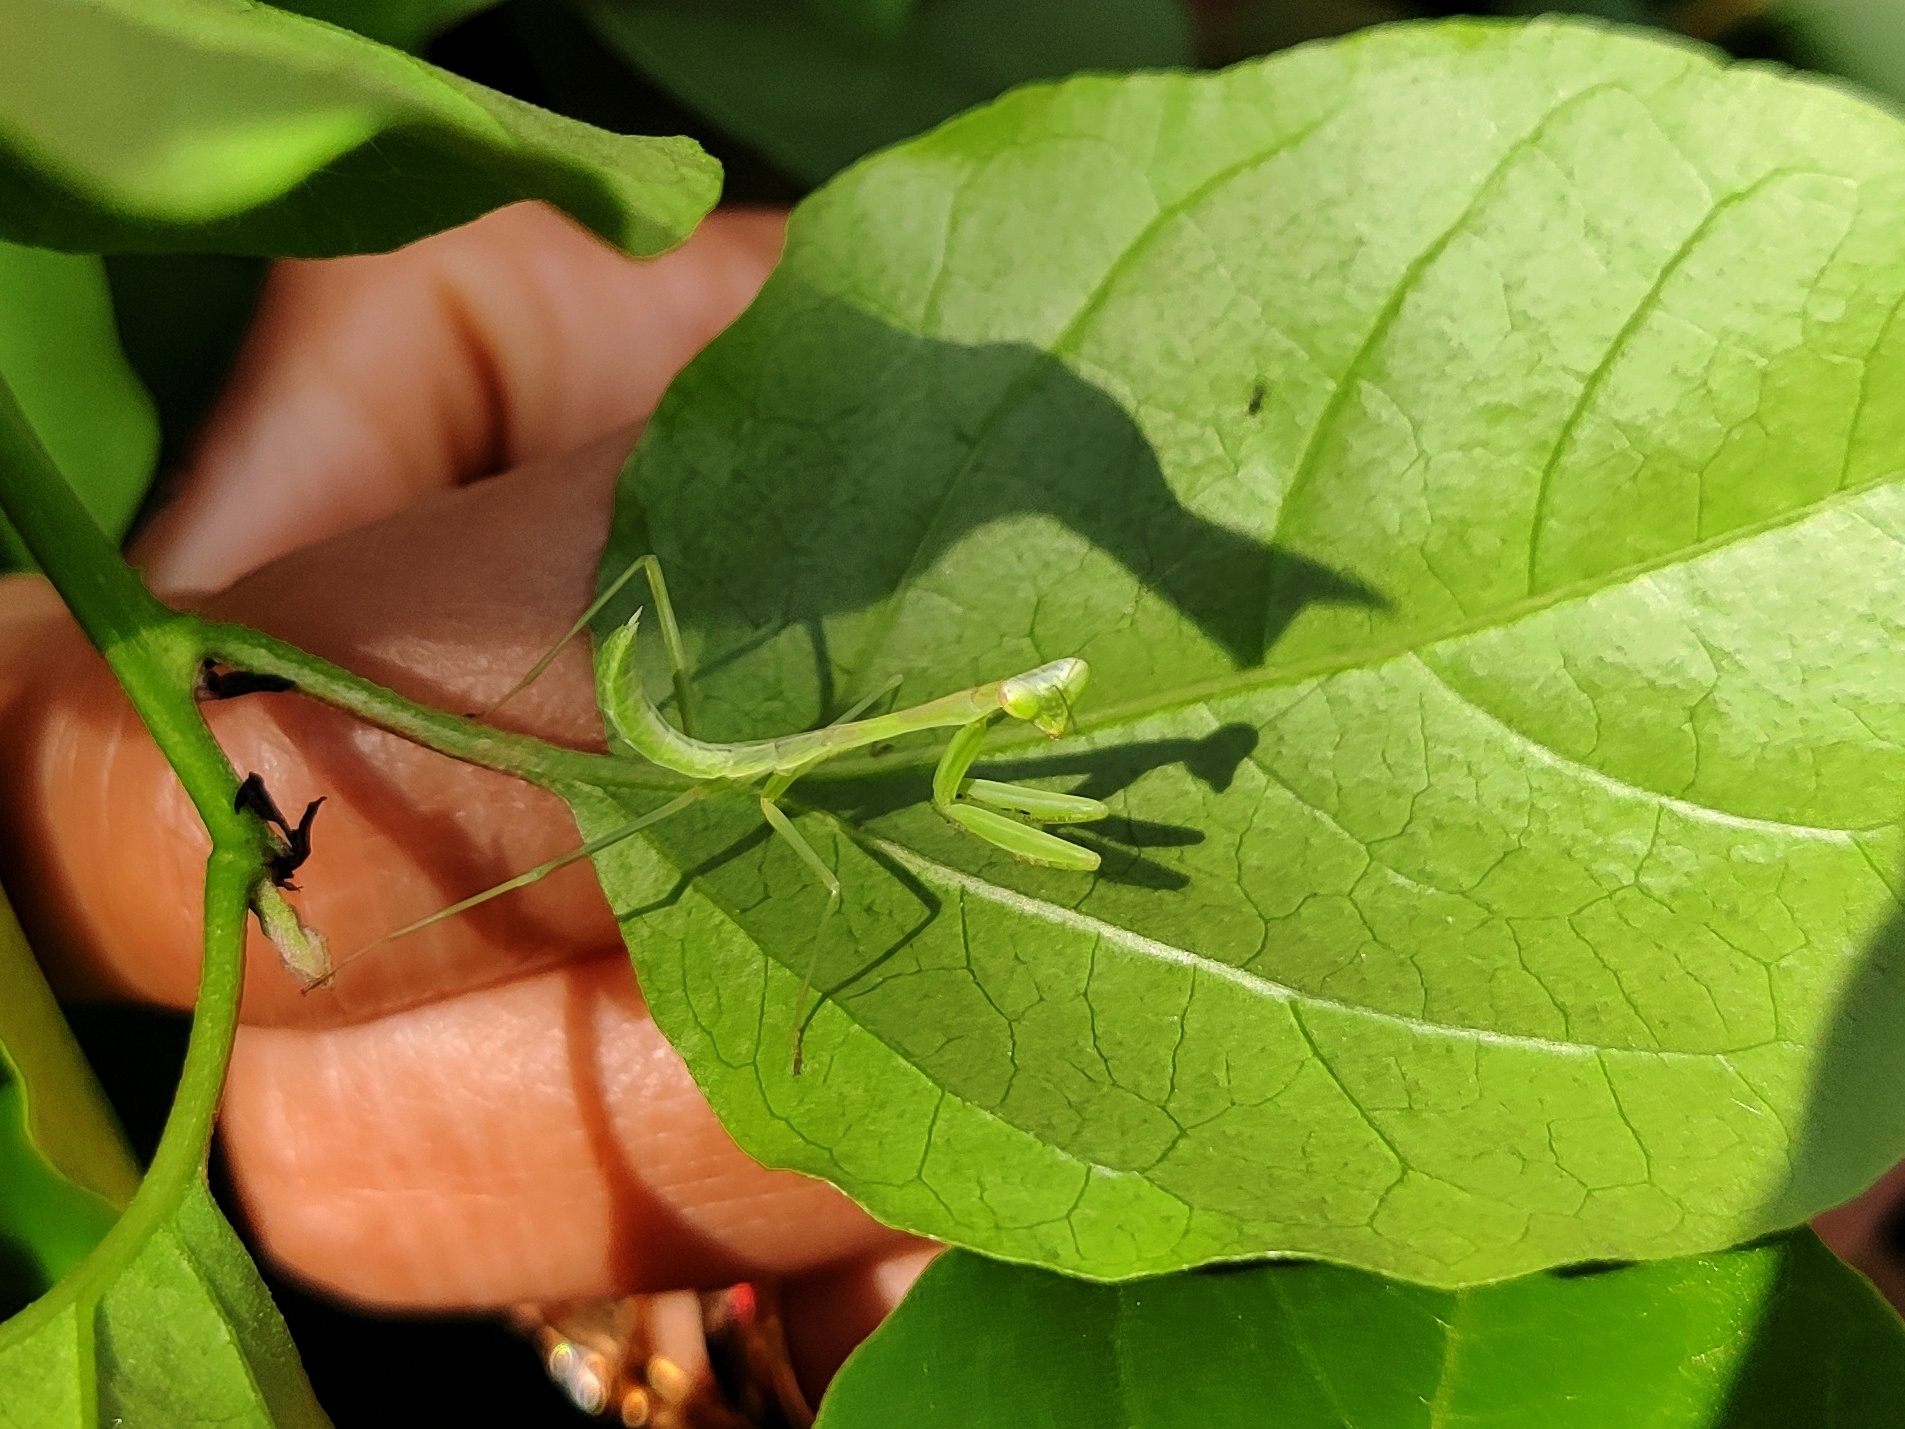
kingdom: Animalia
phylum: Arthropoda
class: Insecta
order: Mantodea
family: Mantidae
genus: Hierodula
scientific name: Hierodula membranacea
